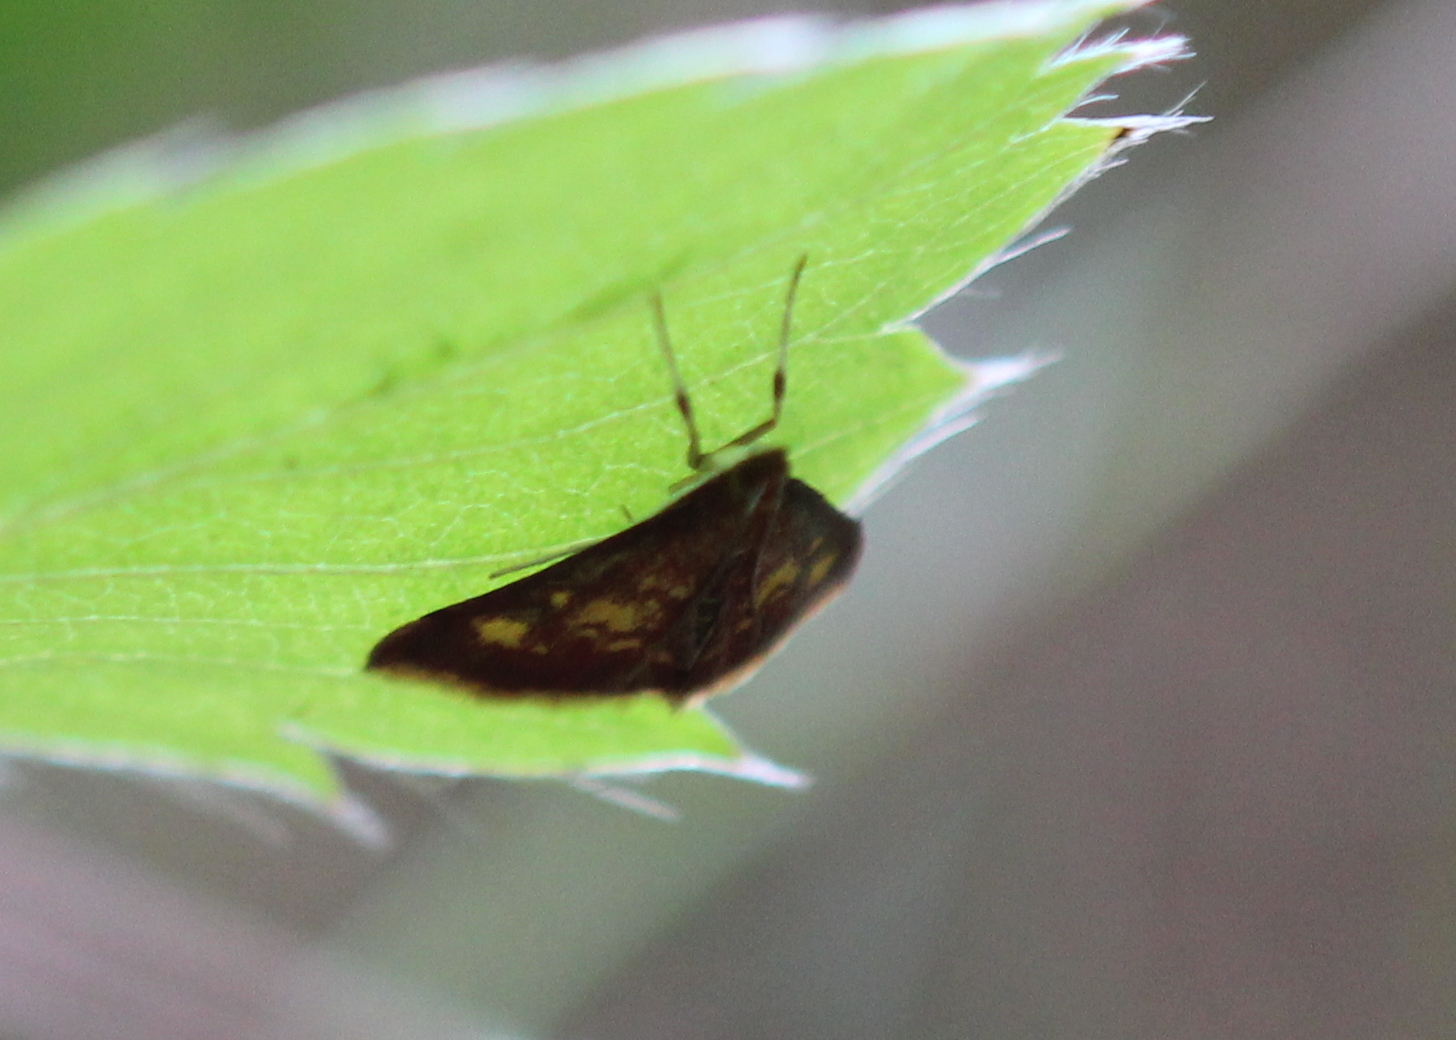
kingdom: Animalia
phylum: Arthropoda
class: Insecta
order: Lepidoptera
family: Crambidae
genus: Pyrausta
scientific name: Pyrausta acrionalis
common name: Mint-loving pyrausta moth
